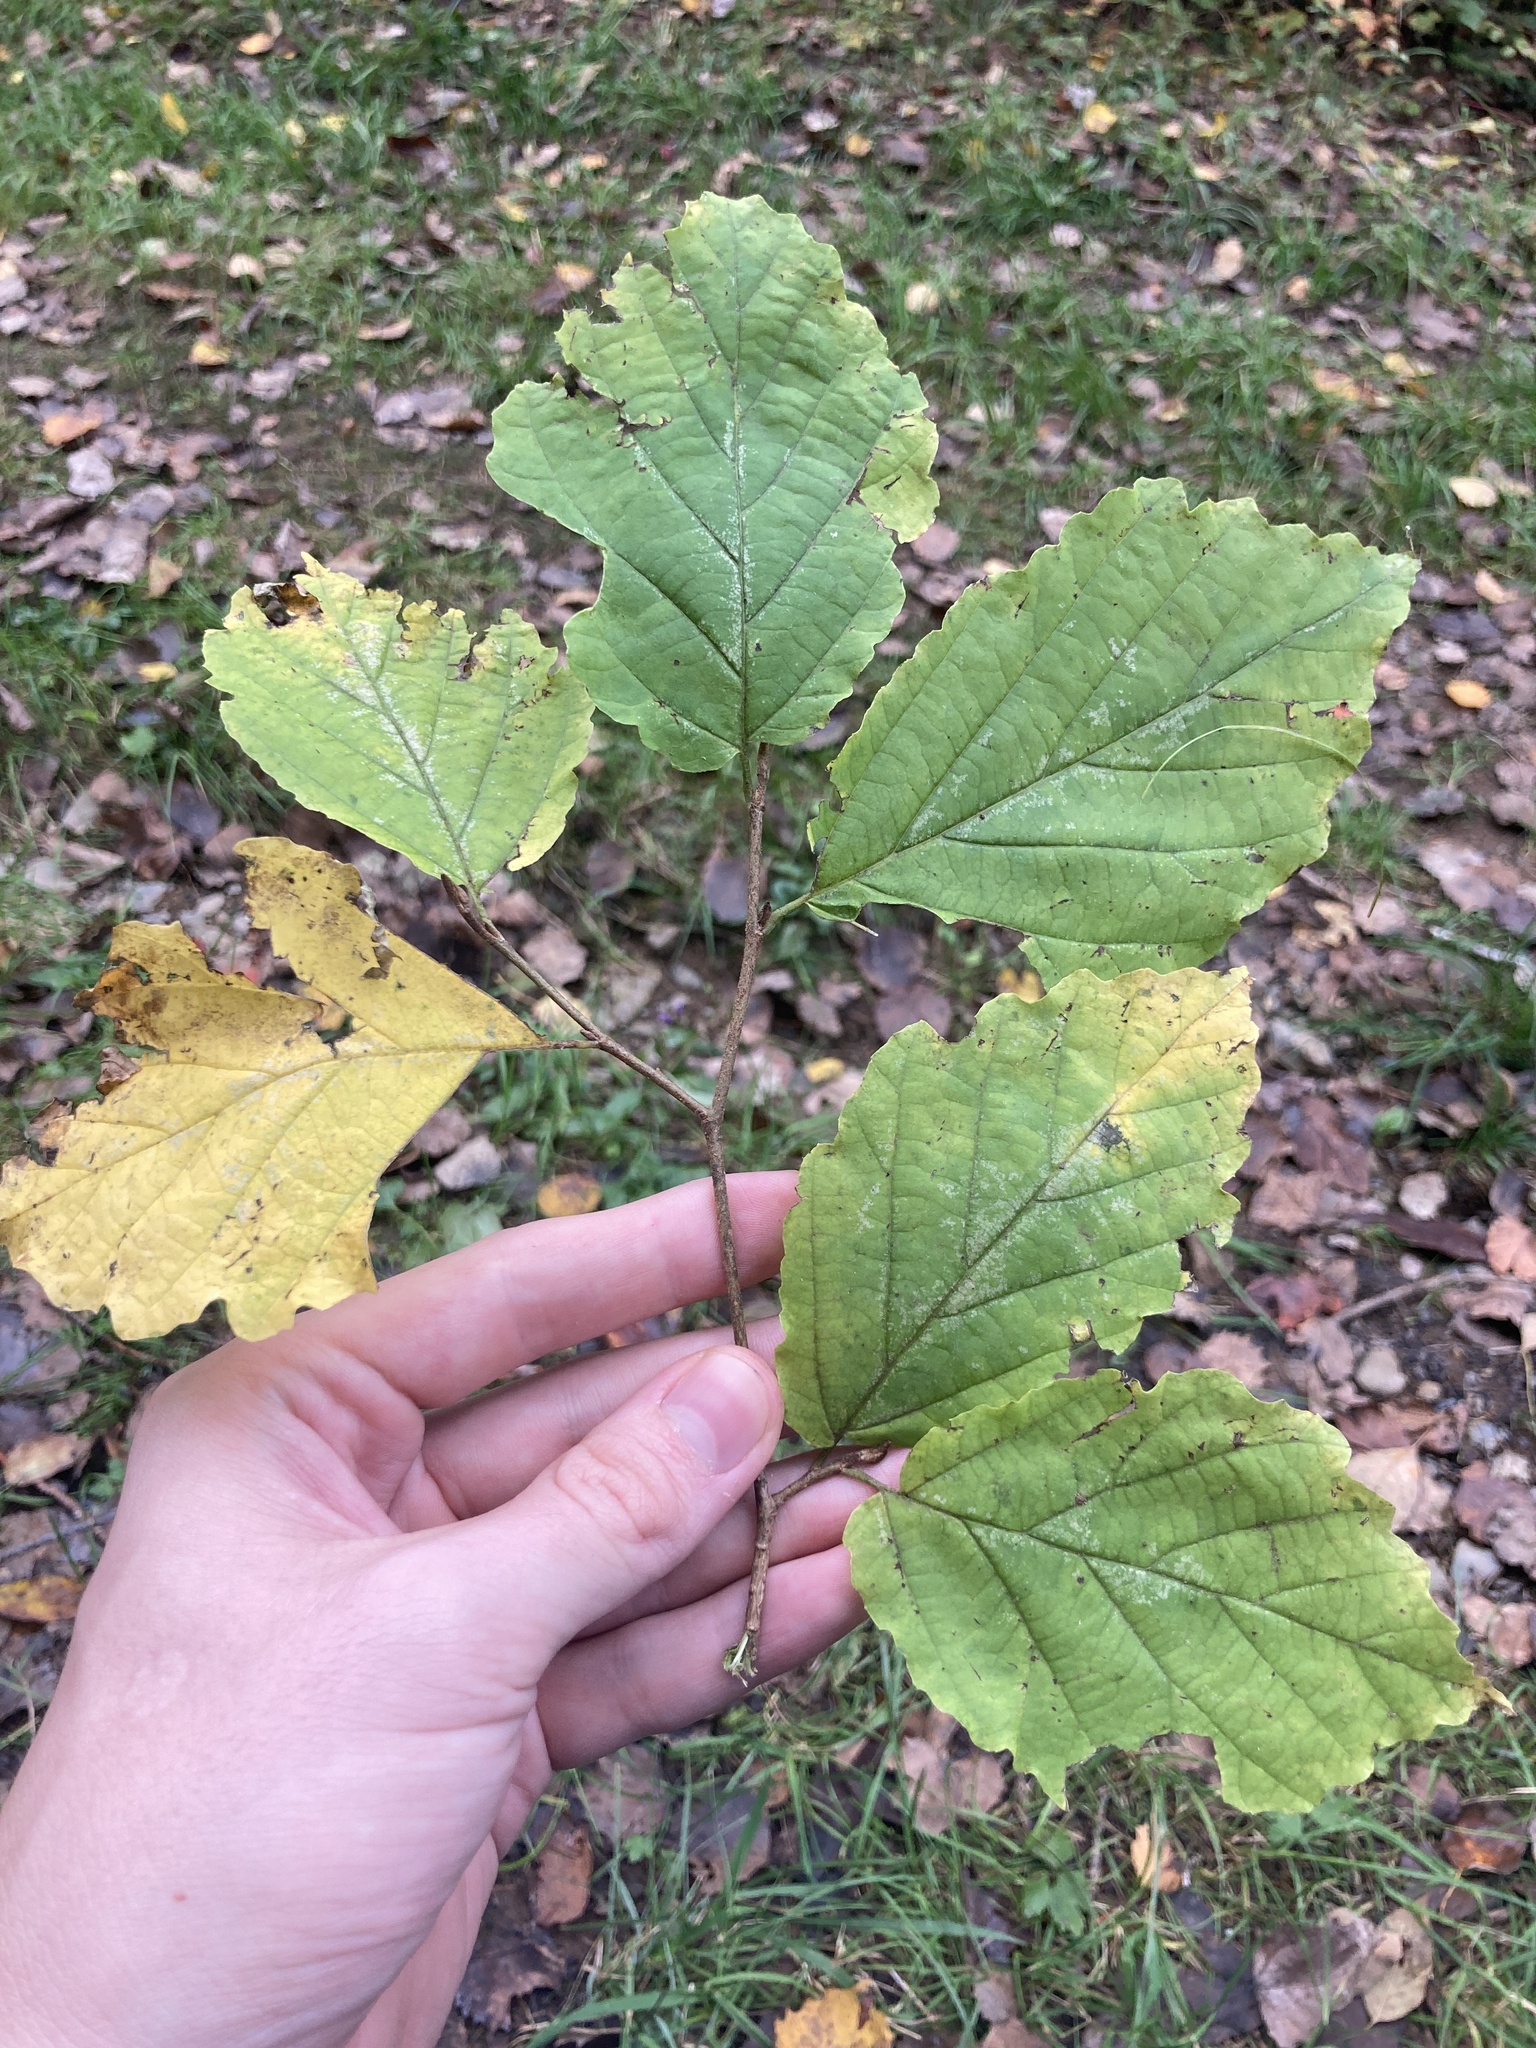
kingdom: Plantae
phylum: Tracheophyta
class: Magnoliopsida
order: Saxifragales
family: Hamamelidaceae
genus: Hamamelis
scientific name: Hamamelis virginiana
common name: Witch-hazel
